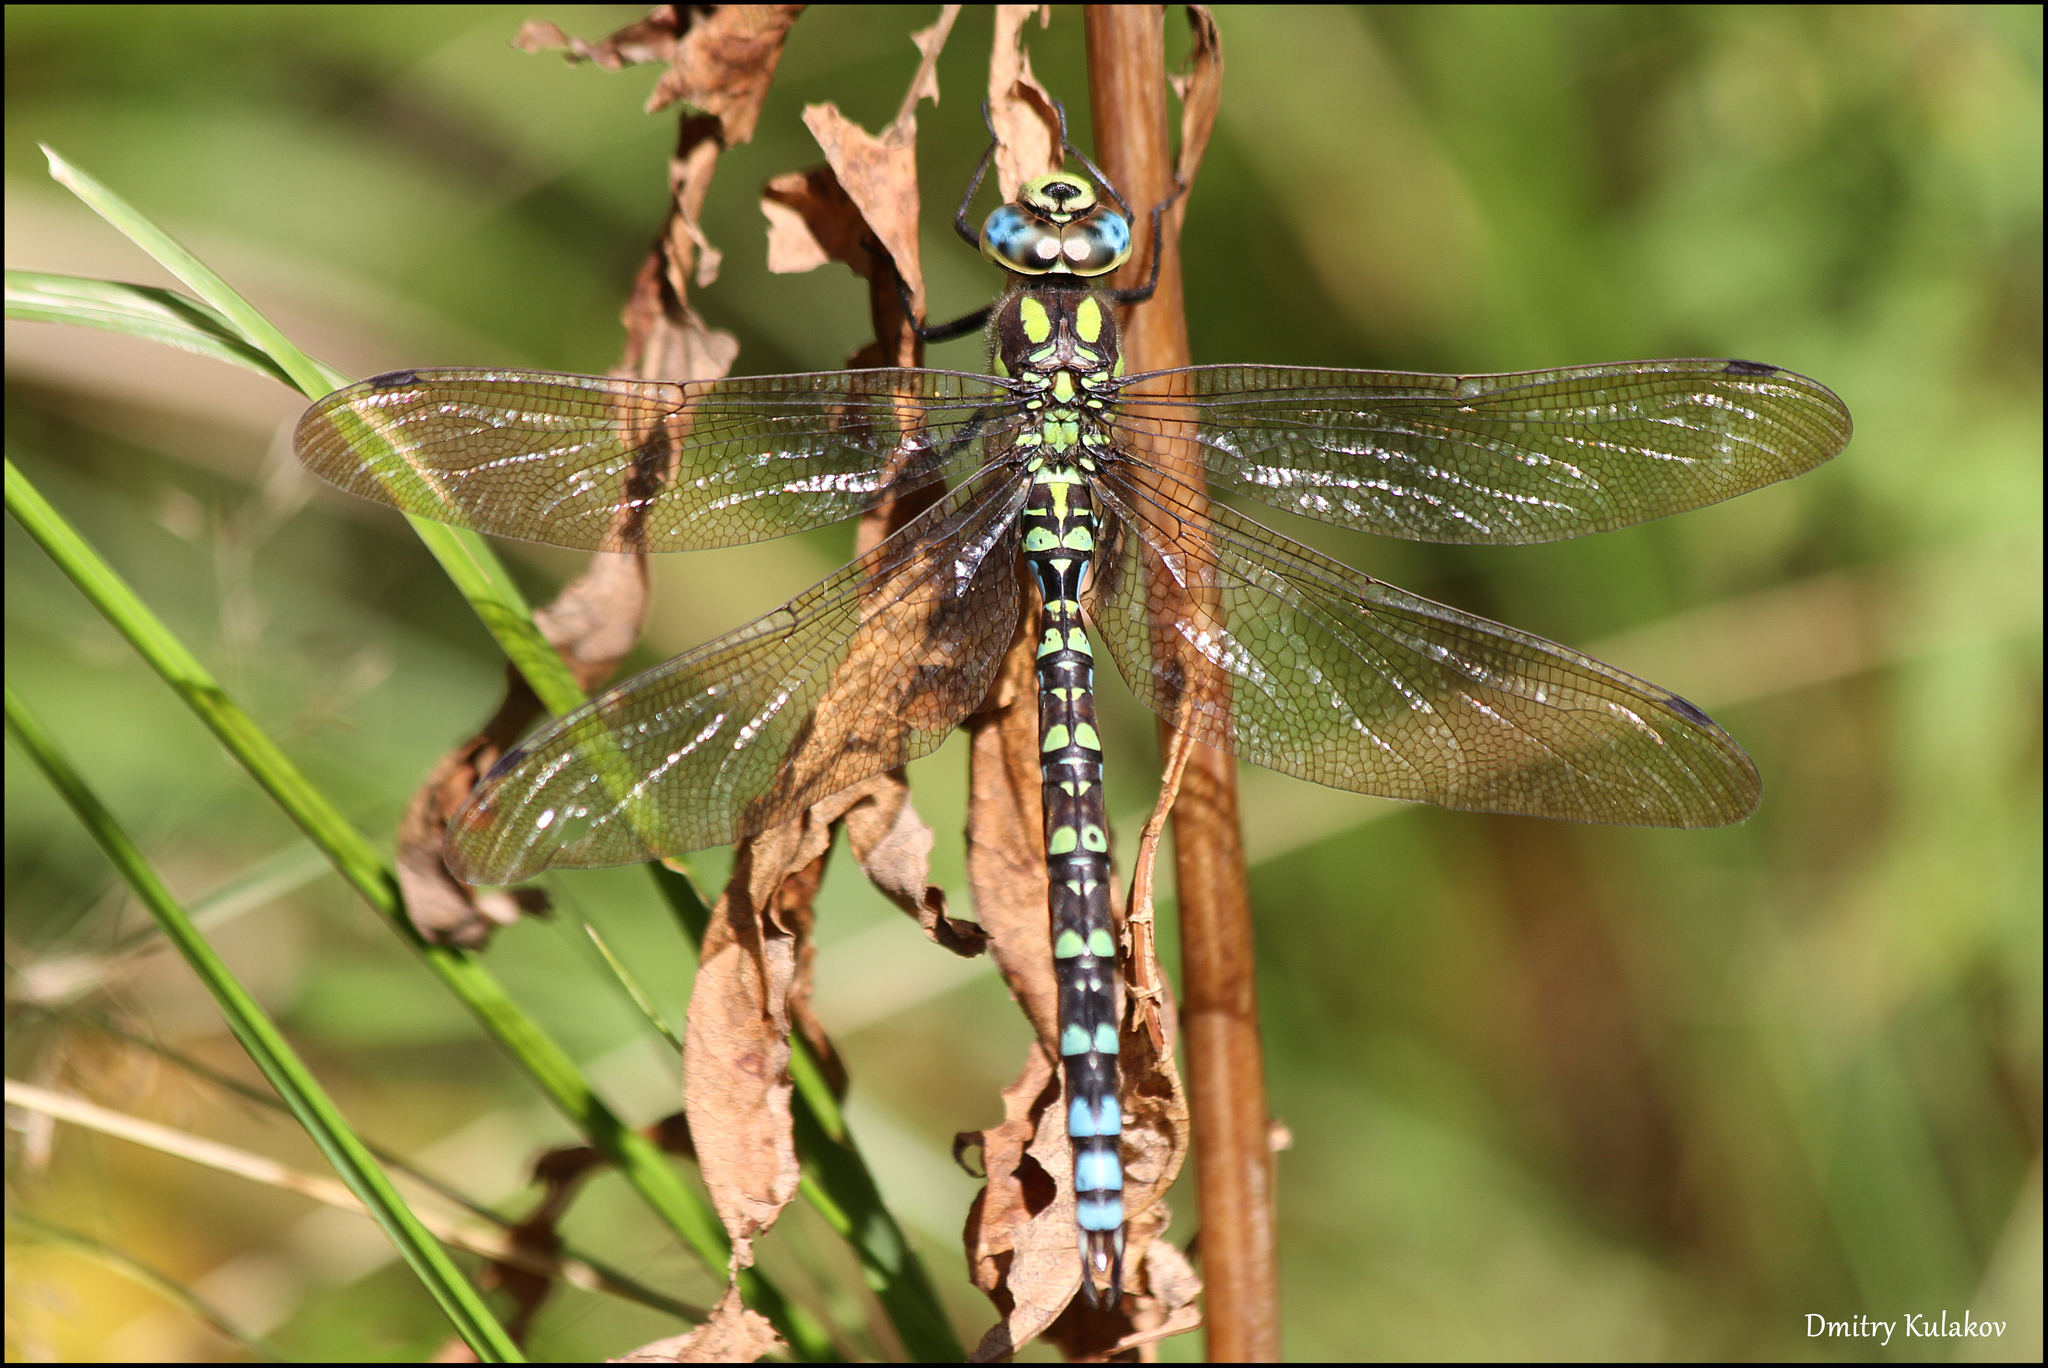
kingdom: Animalia
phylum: Arthropoda
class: Insecta
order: Odonata
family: Aeshnidae
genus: Aeshna
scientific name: Aeshna cyanea
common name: Southern hawker
